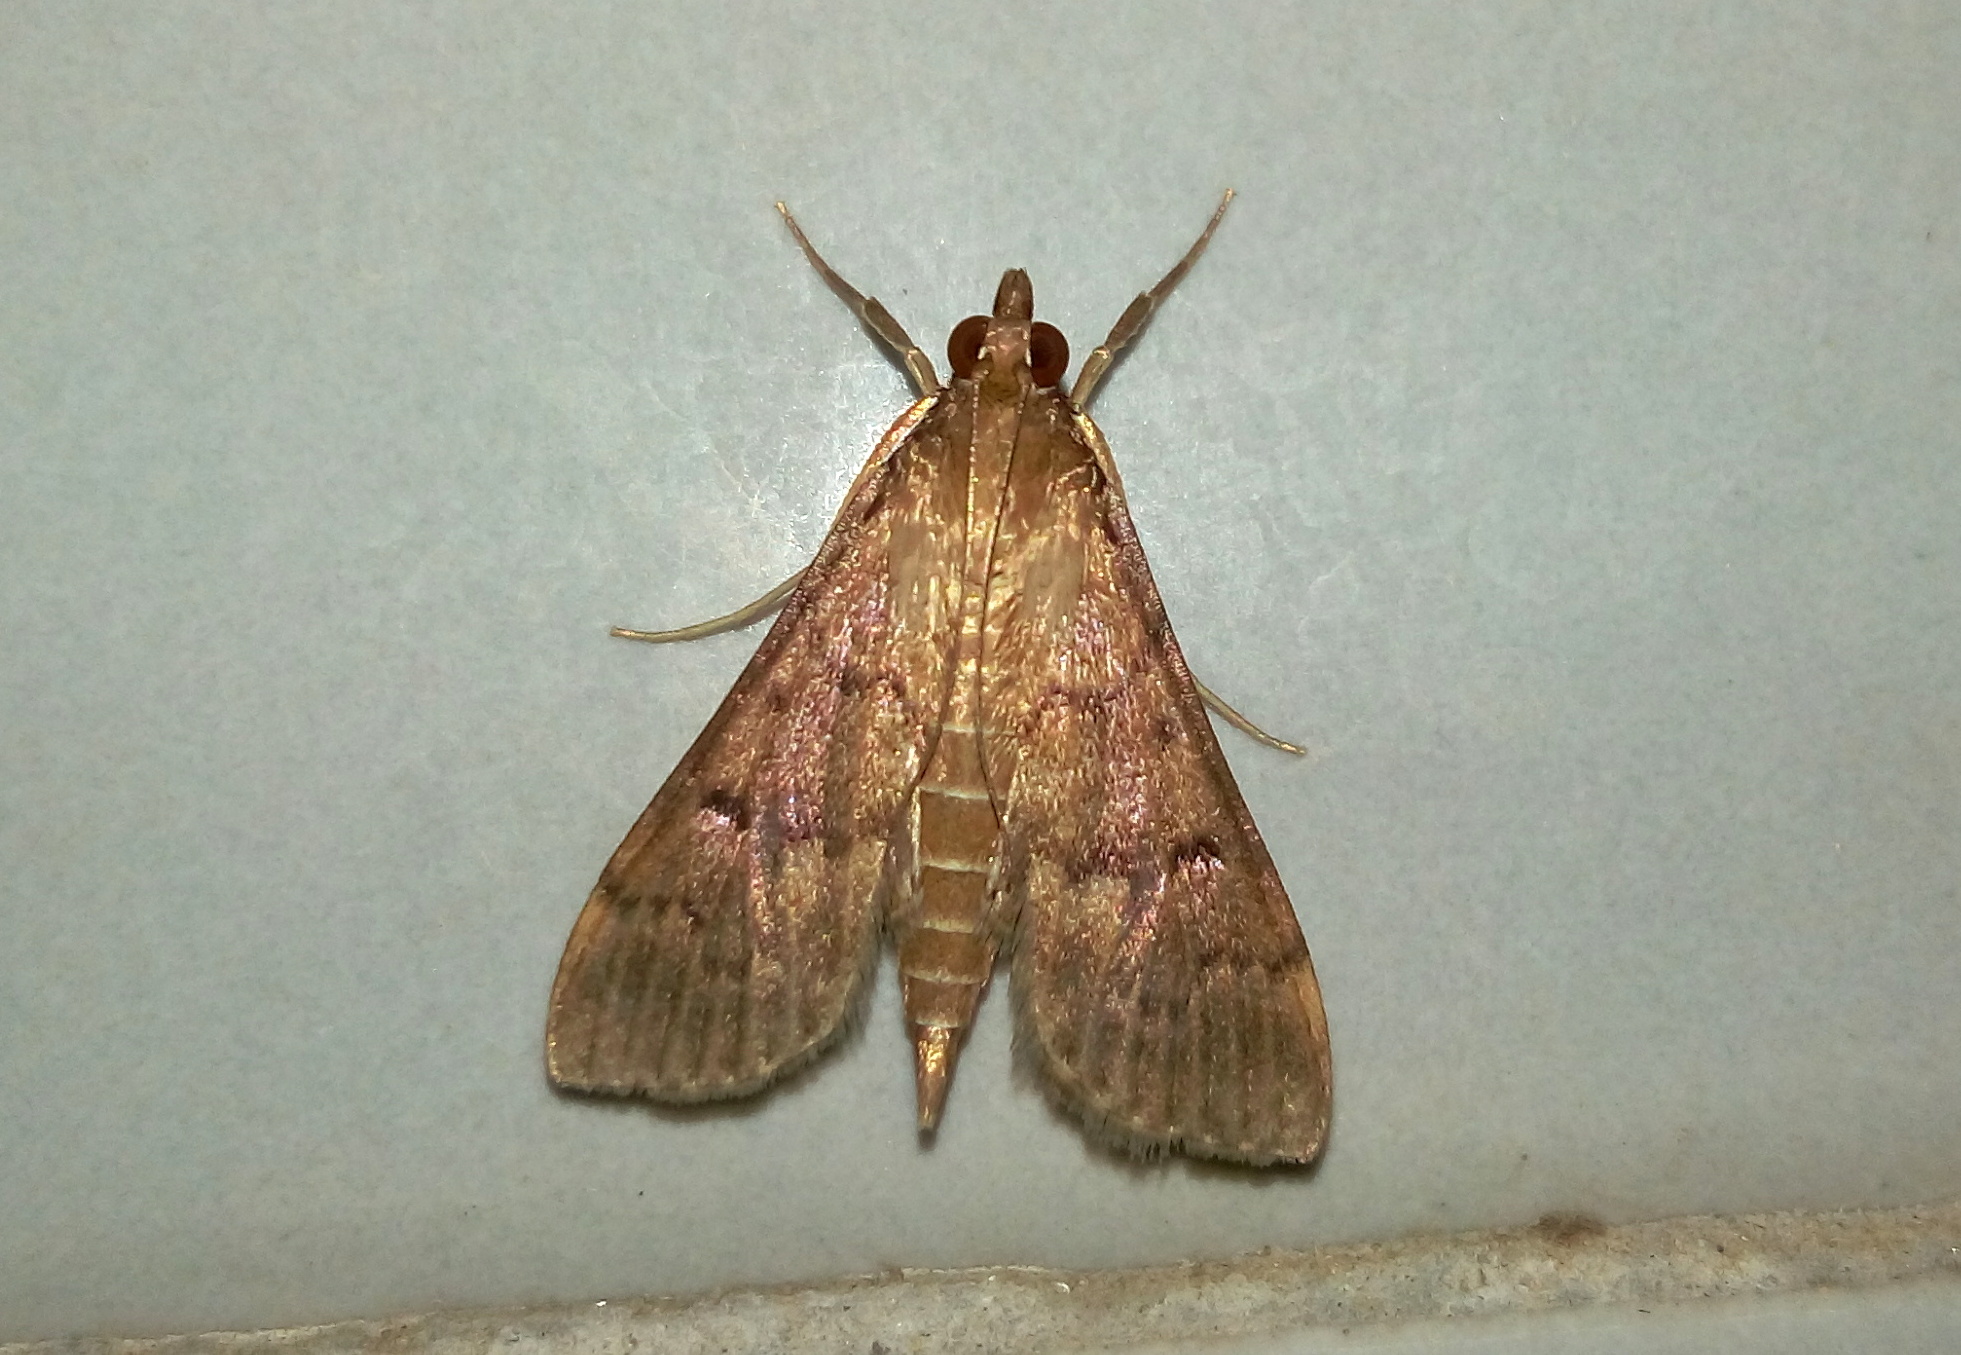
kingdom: Animalia
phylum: Arthropoda
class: Insecta
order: Lepidoptera
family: Crambidae
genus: Herpetogramma
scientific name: Herpetogramma licarsisalis
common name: Grass webworm
